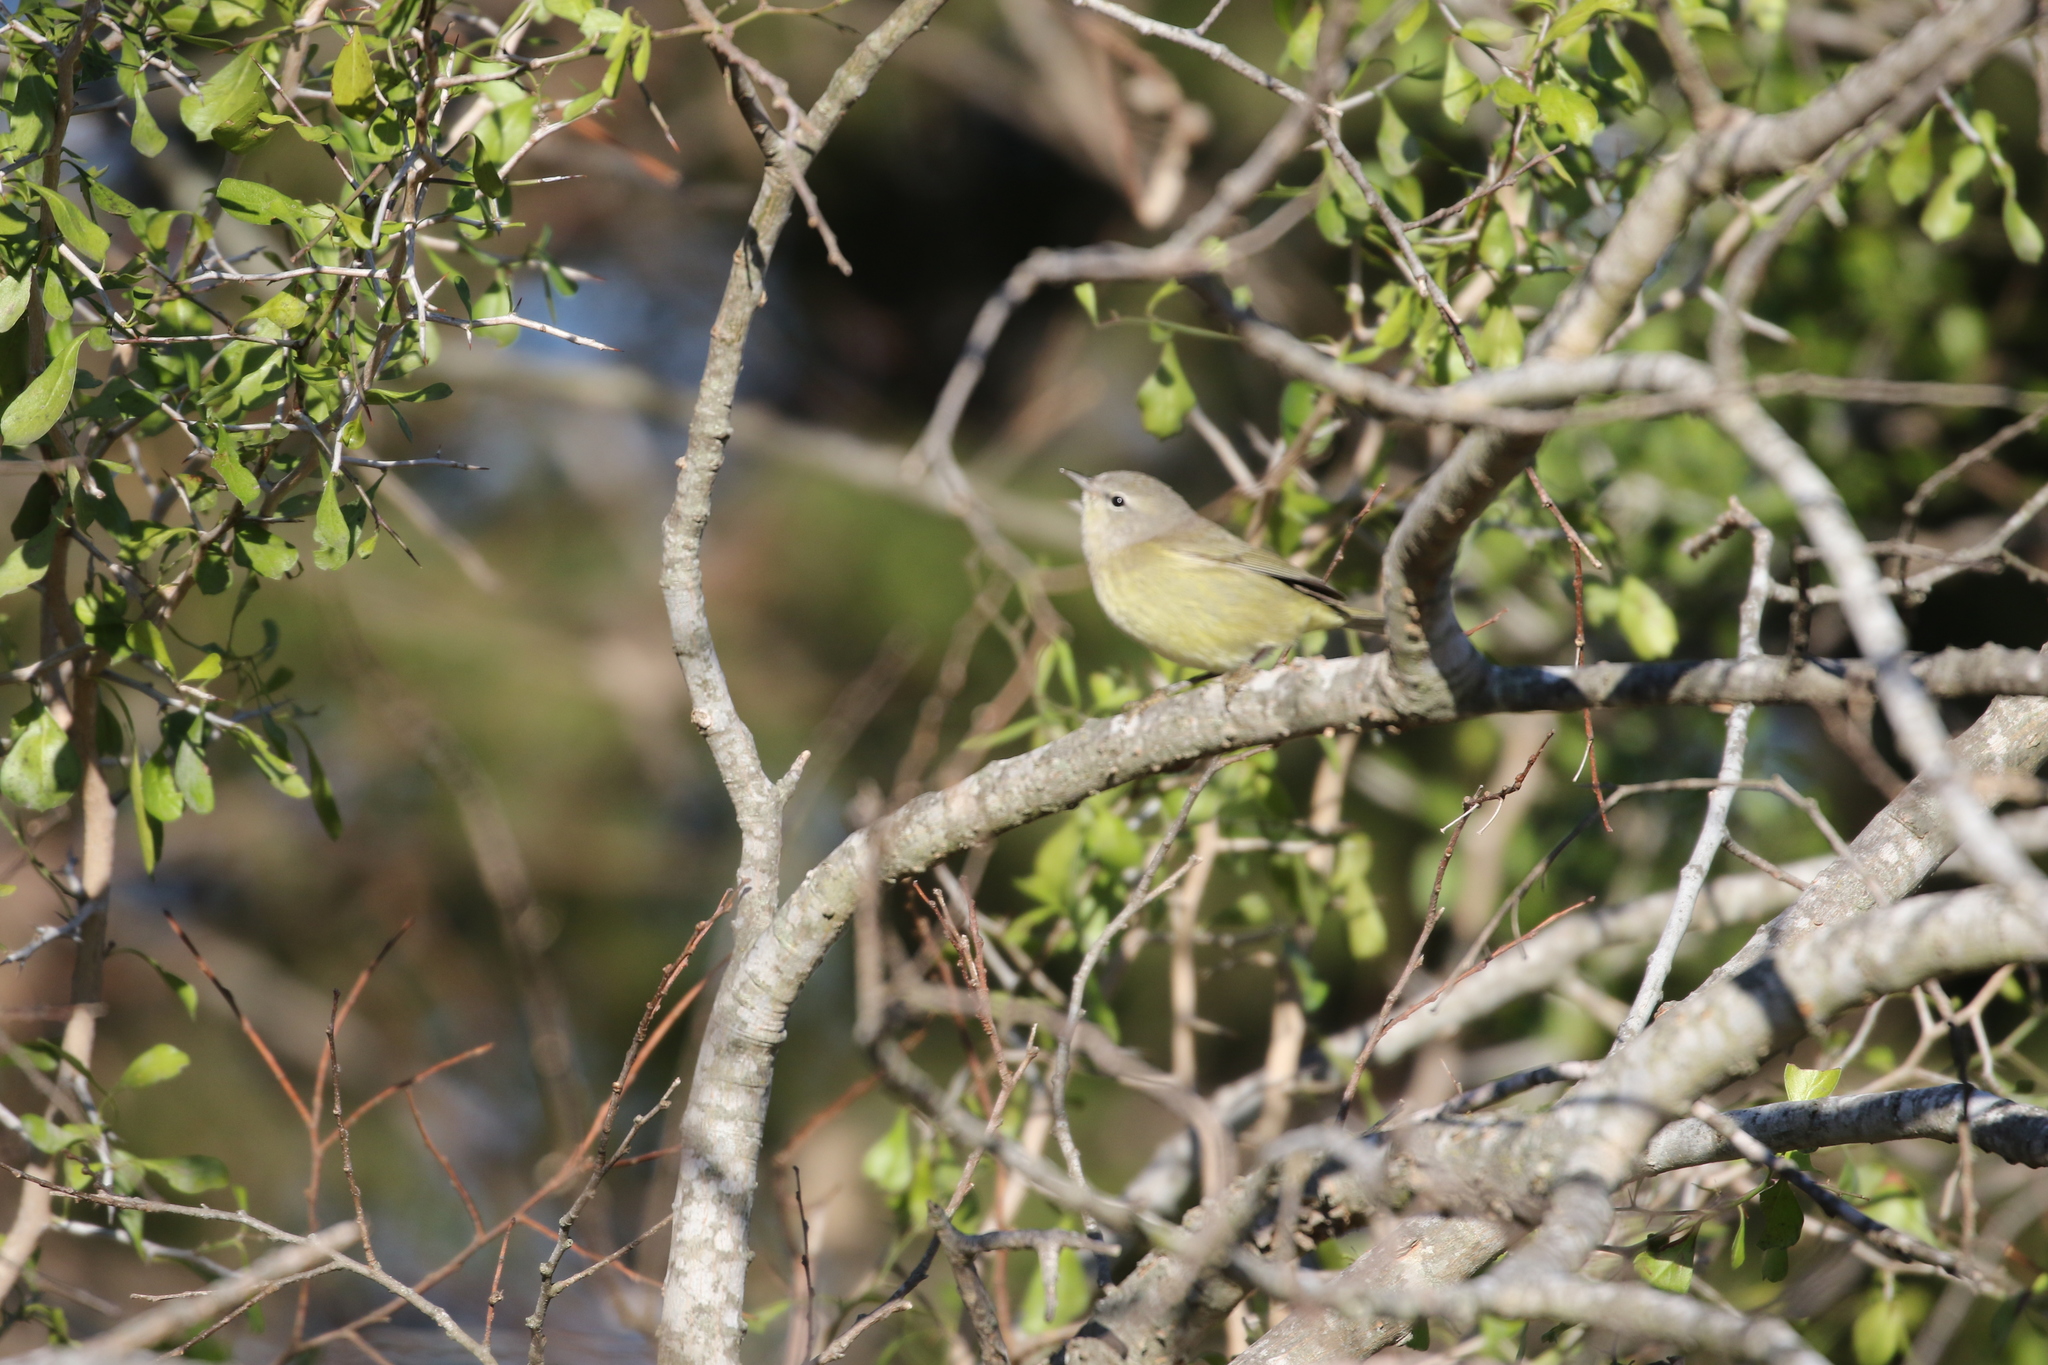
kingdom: Animalia
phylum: Chordata
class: Aves
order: Passeriformes
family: Parulidae
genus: Leiothlypis
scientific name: Leiothlypis celata
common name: Orange-crowned warbler
